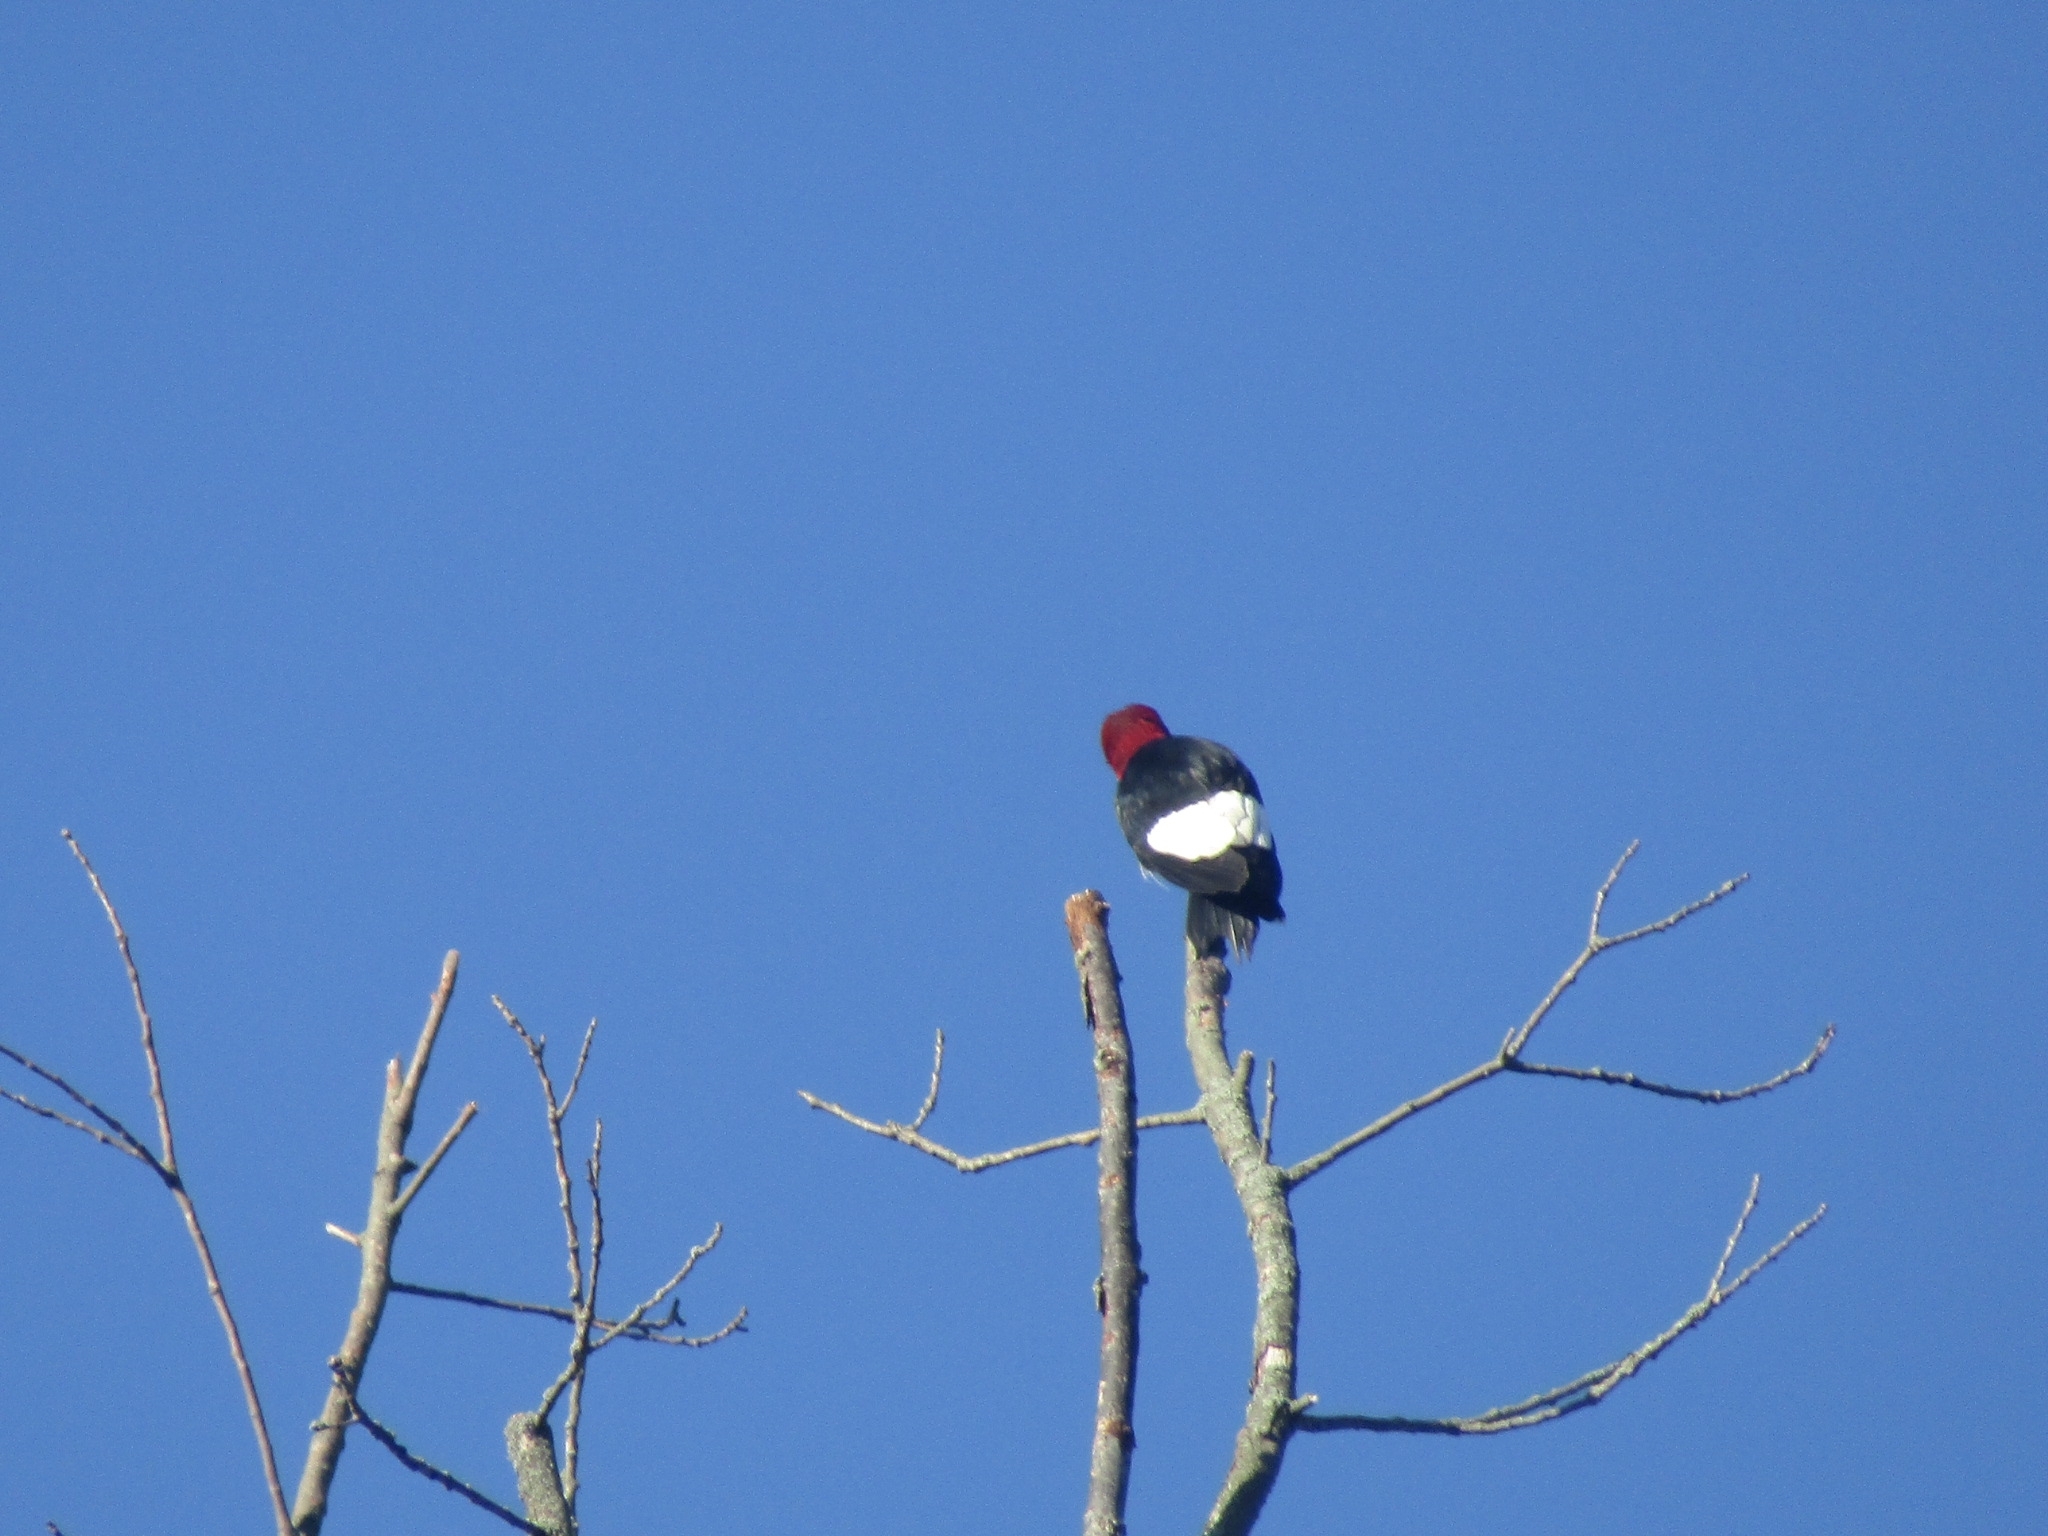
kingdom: Animalia
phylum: Chordata
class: Aves
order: Piciformes
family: Picidae
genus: Melanerpes
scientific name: Melanerpes erythrocephalus
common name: Red-headed woodpecker
